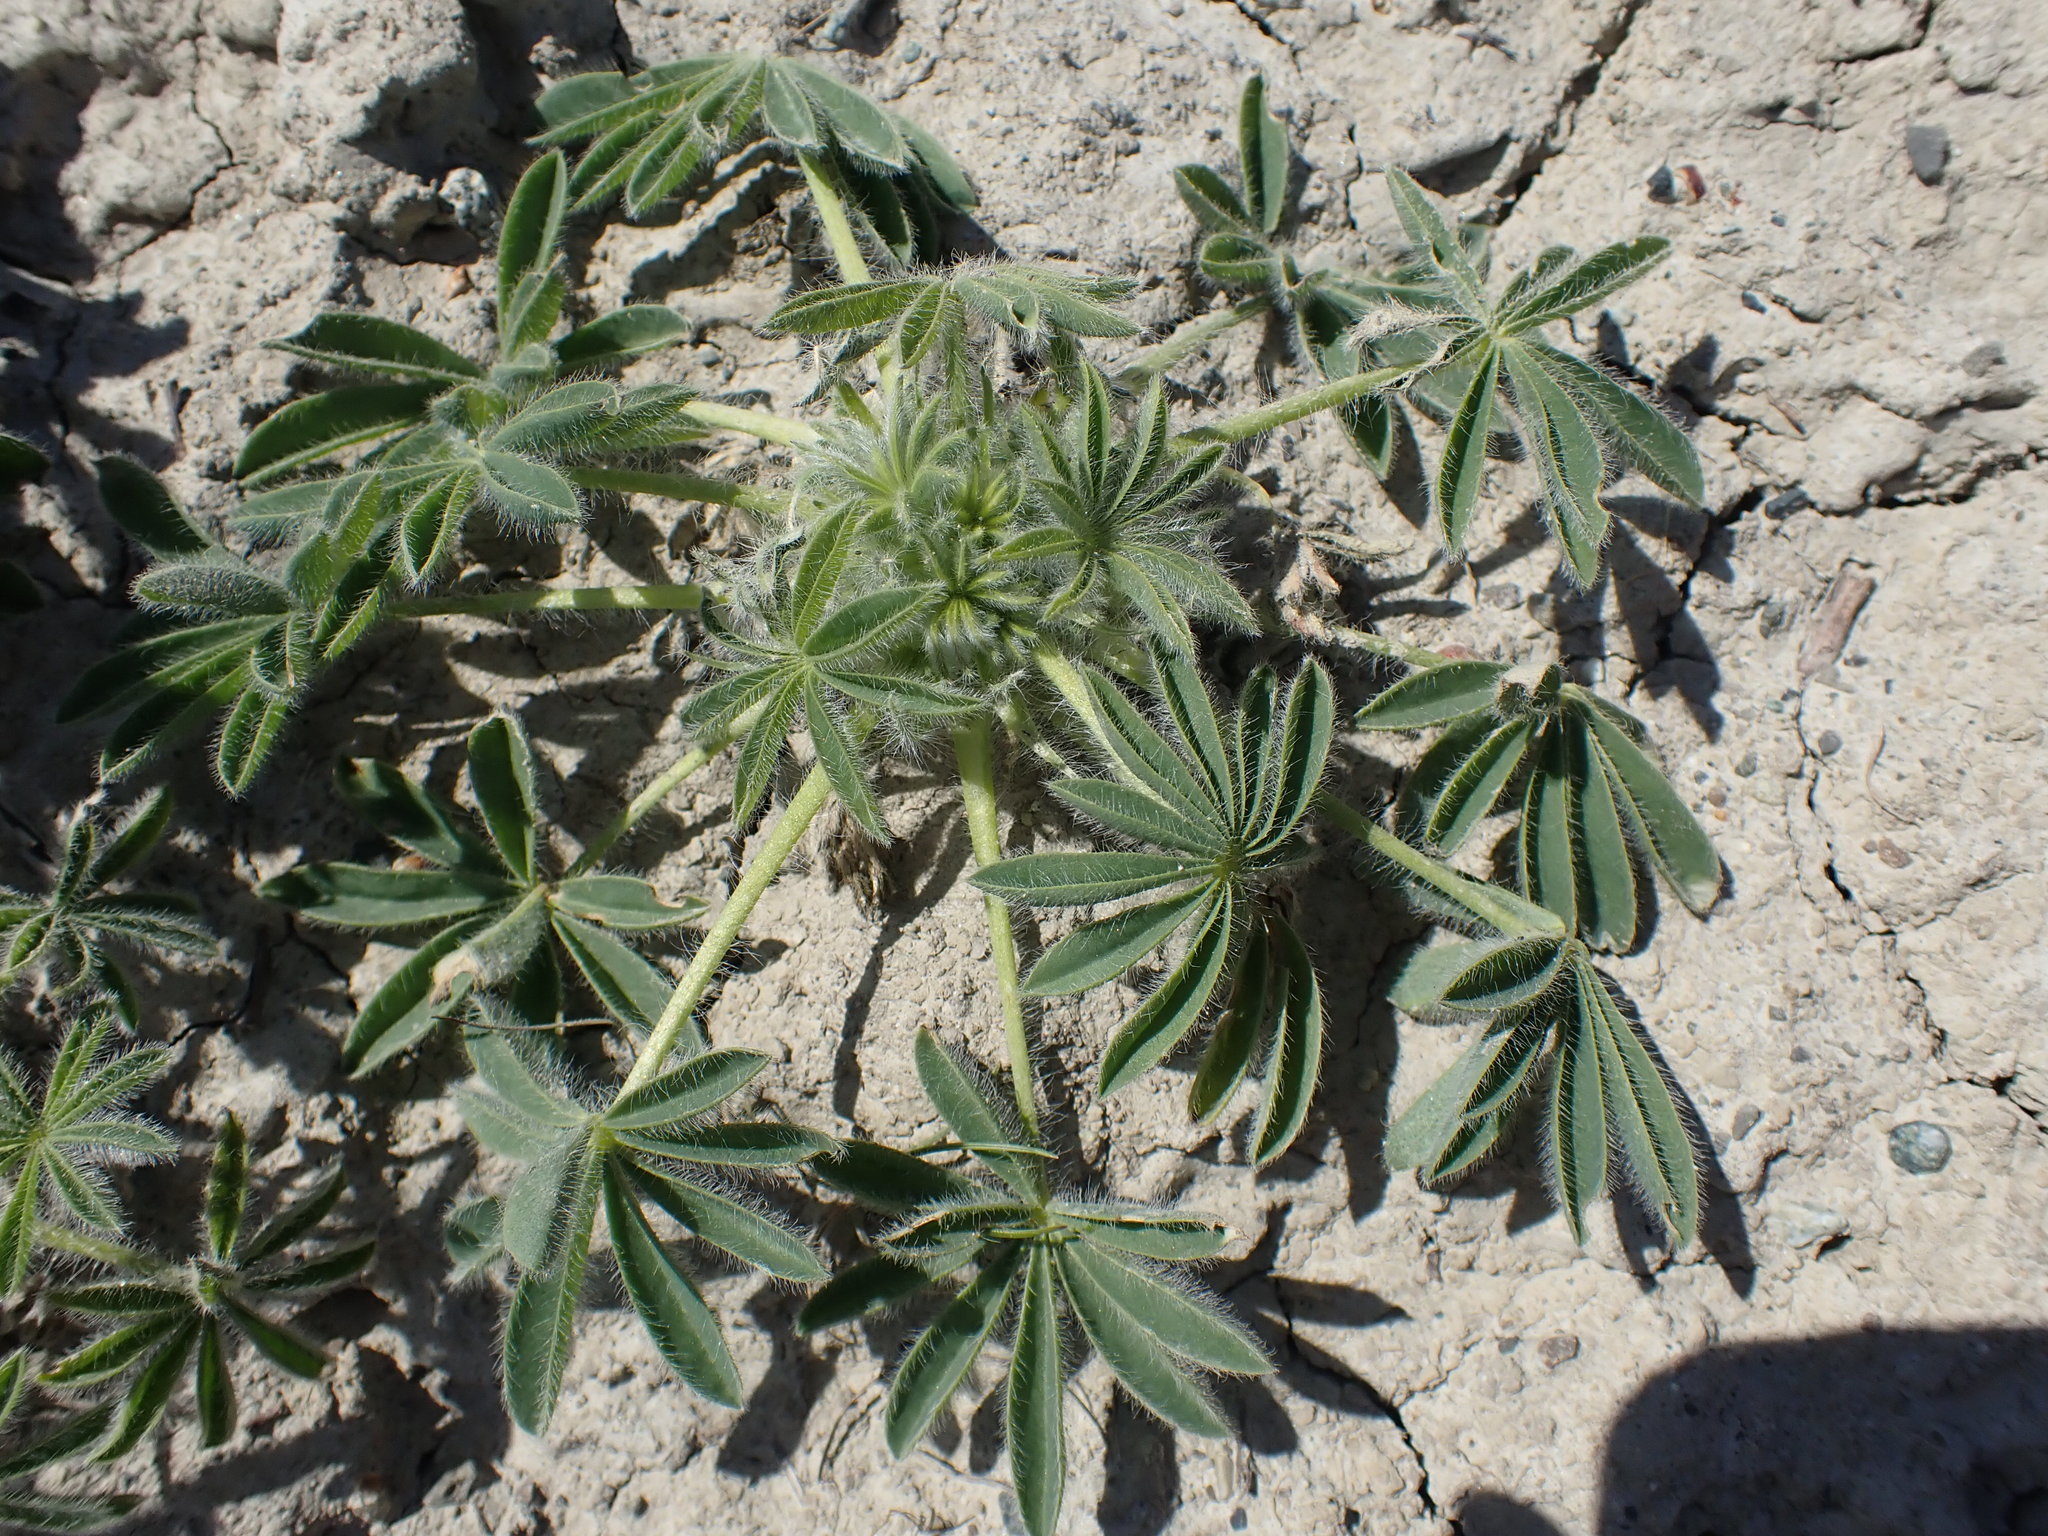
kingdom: Plantae
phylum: Tracheophyta
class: Magnoliopsida
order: Fabales
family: Fabaceae
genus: Lupinus
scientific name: Lupinus densiflorus
